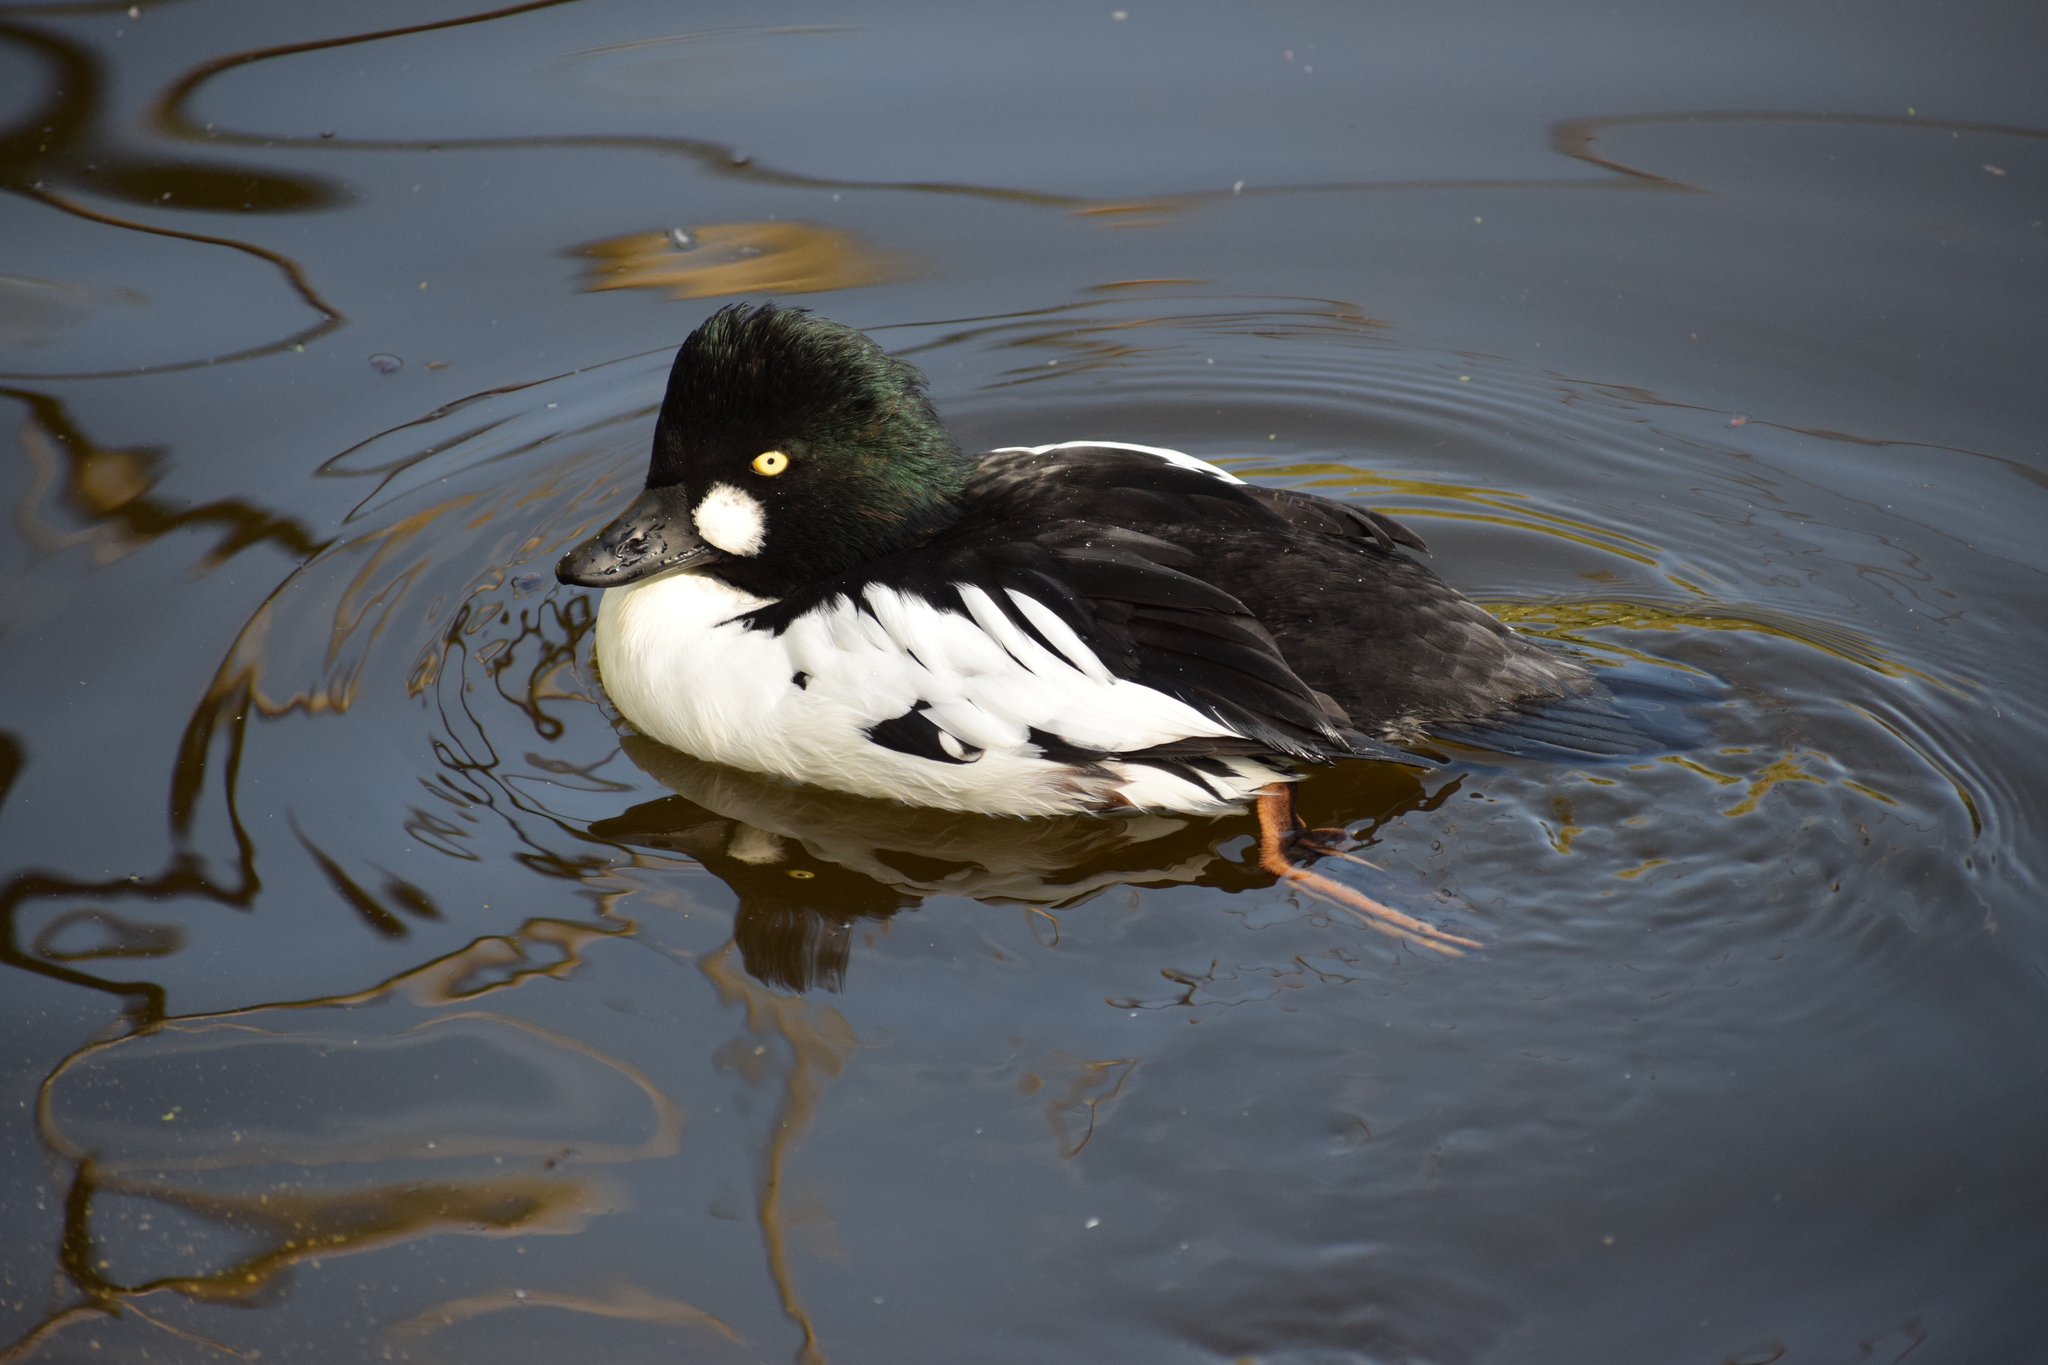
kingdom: Animalia
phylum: Chordata
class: Aves
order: Anseriformes
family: Anatidae
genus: Bucephala
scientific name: Bucephala clangula
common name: Common goldeneye
